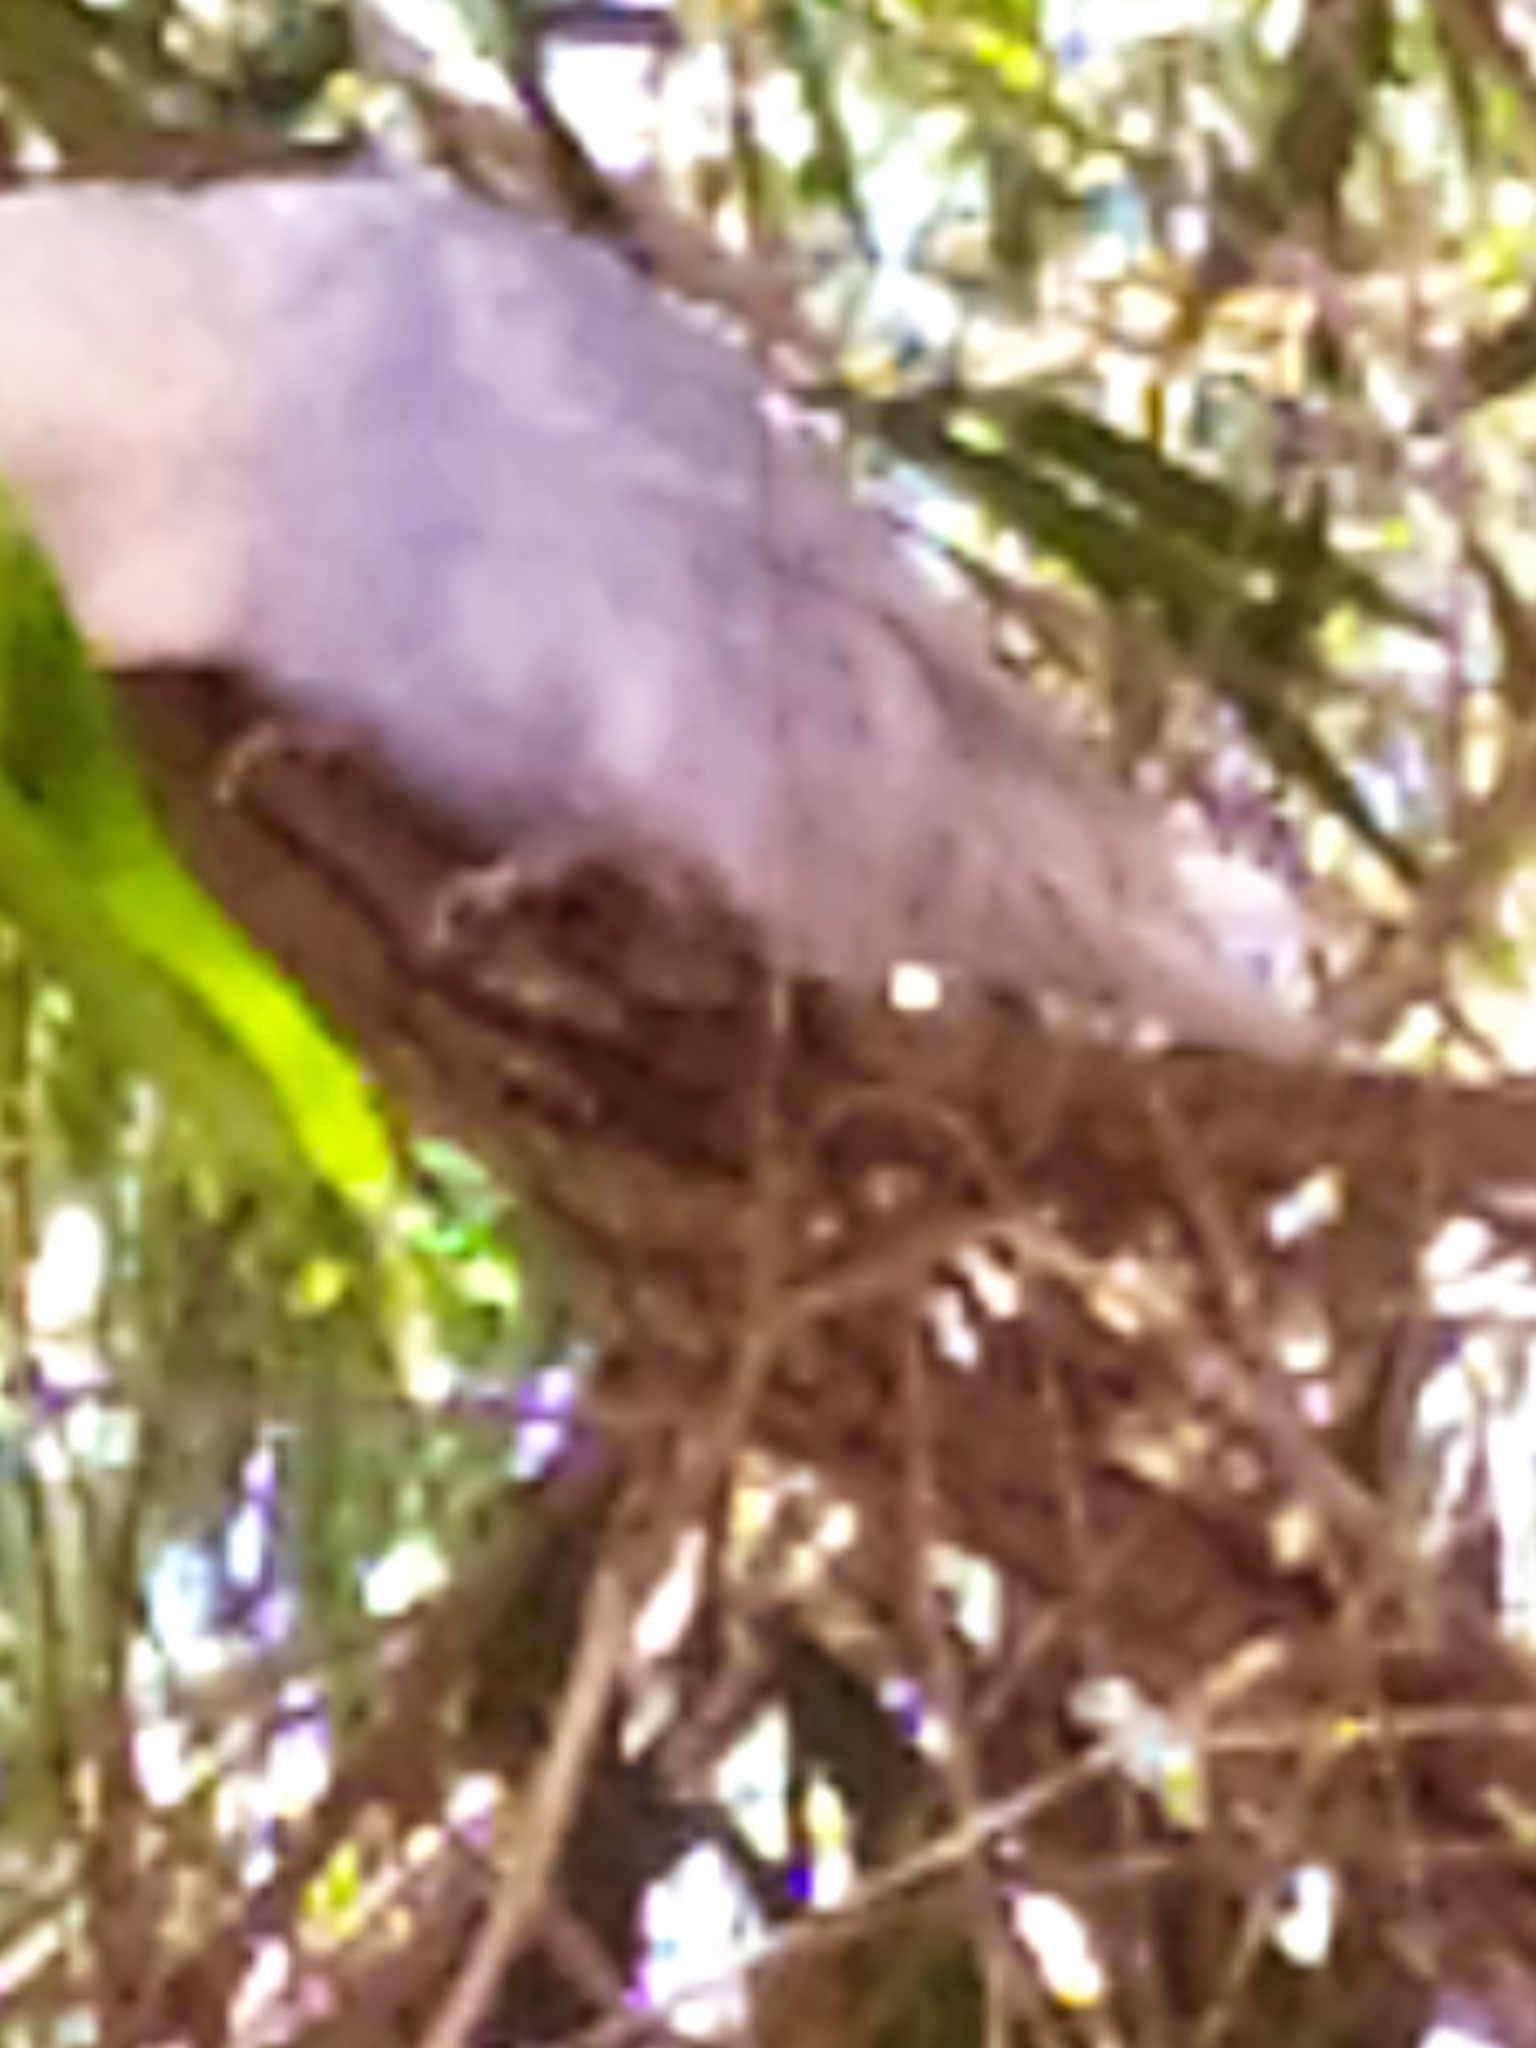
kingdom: Animalia
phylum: Chordata
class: Aves
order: Psittaciformes
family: Psittacidae
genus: Melopsittacus
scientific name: Melopsittacus undulatus
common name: Budgerigar
